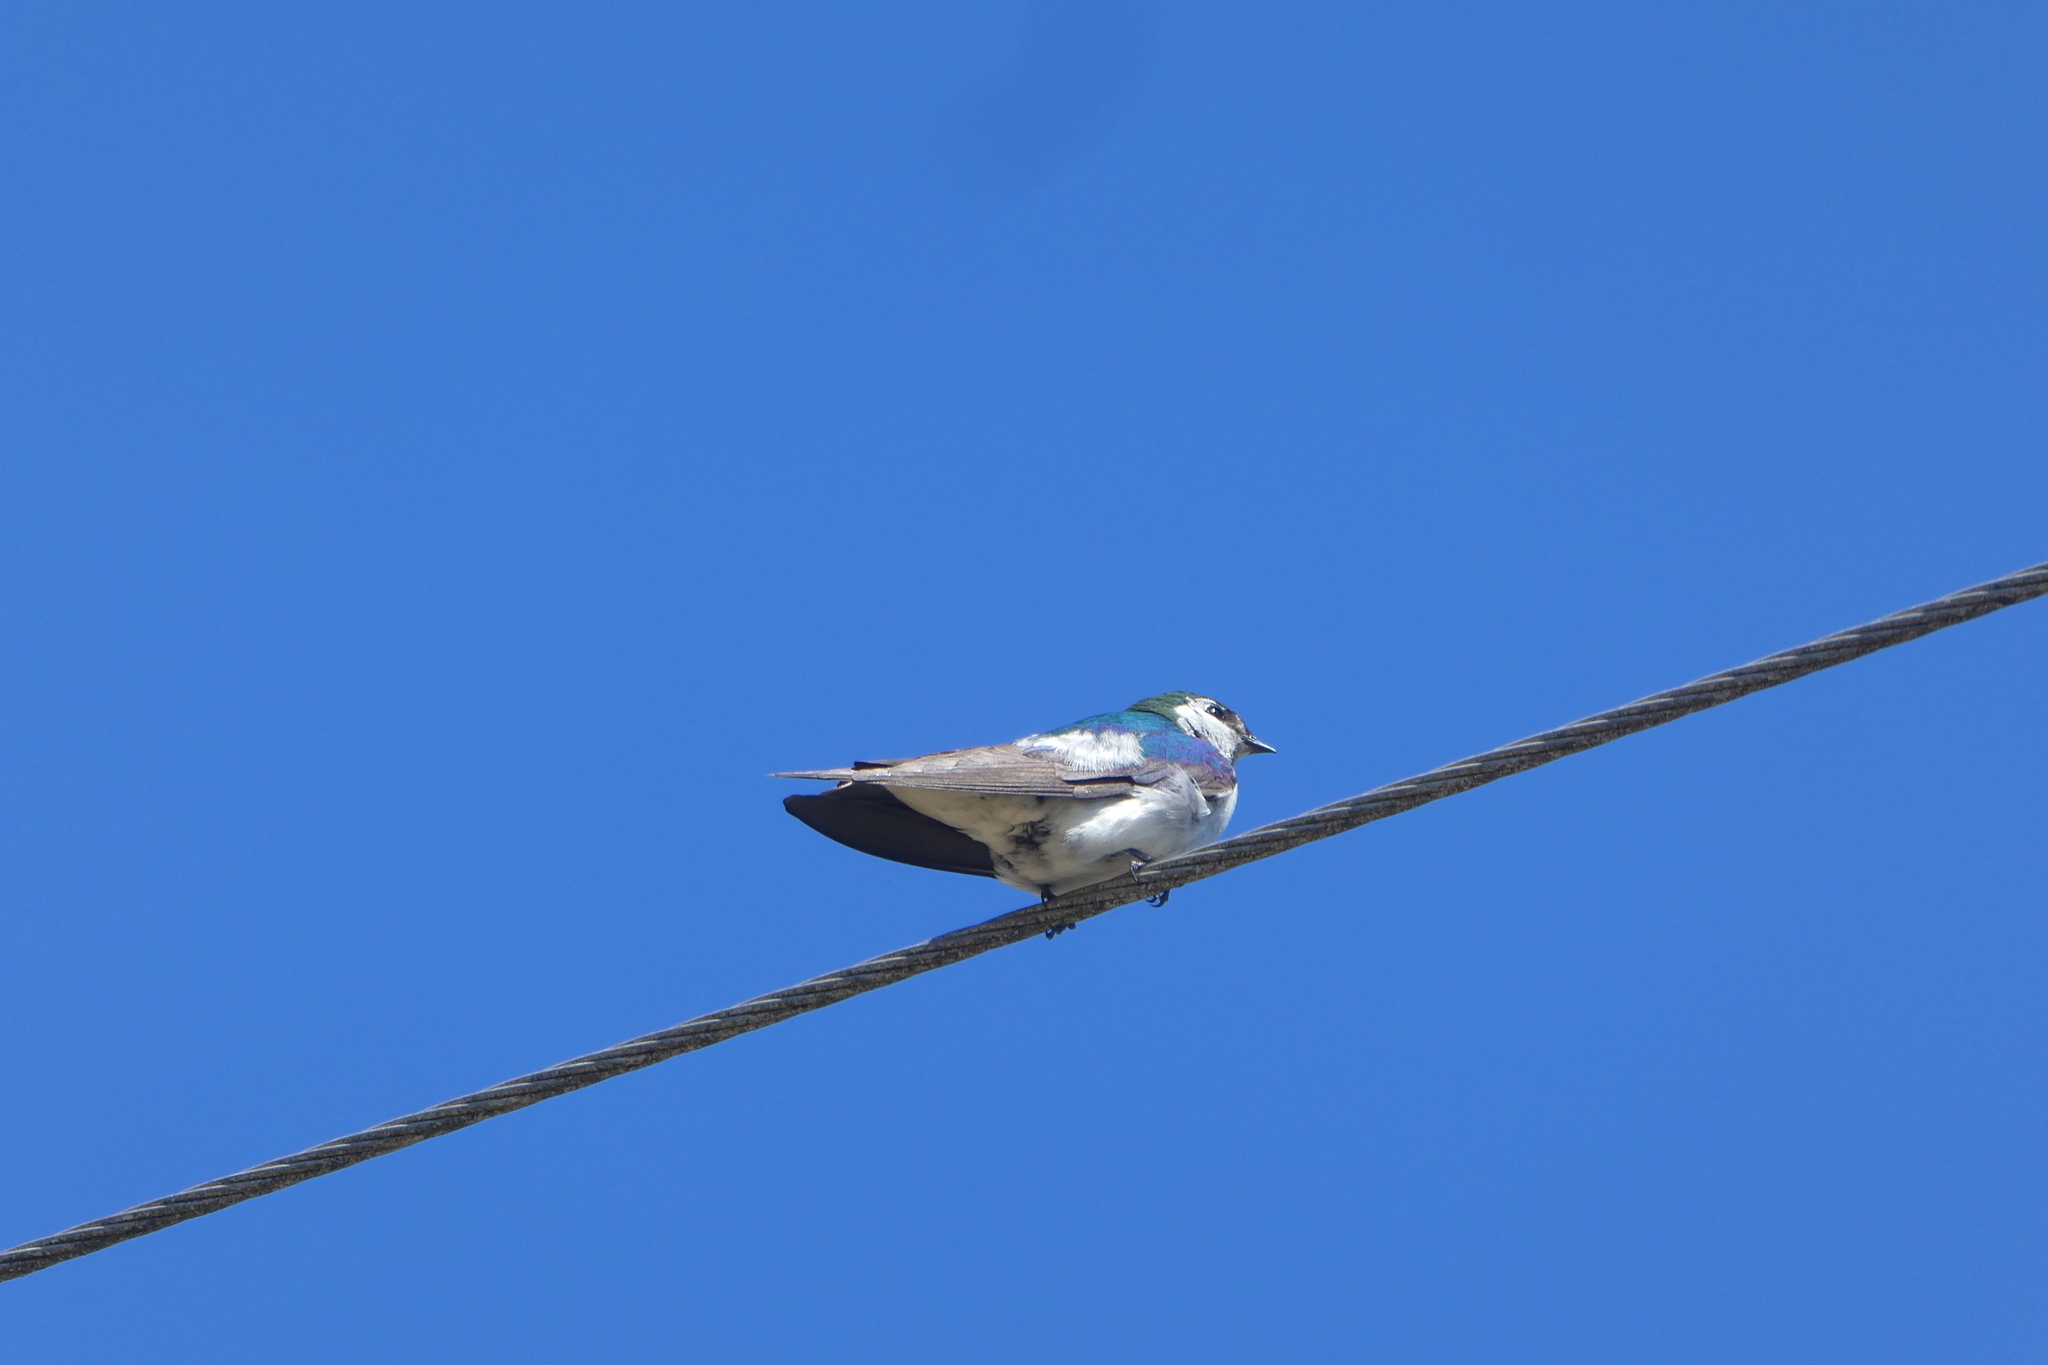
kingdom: Animalia
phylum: Chordata
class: Aves
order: Passeriformes
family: Hirundinidae
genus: Tachycineta
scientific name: Tachycineta thalassina
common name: Violet-green swallow
